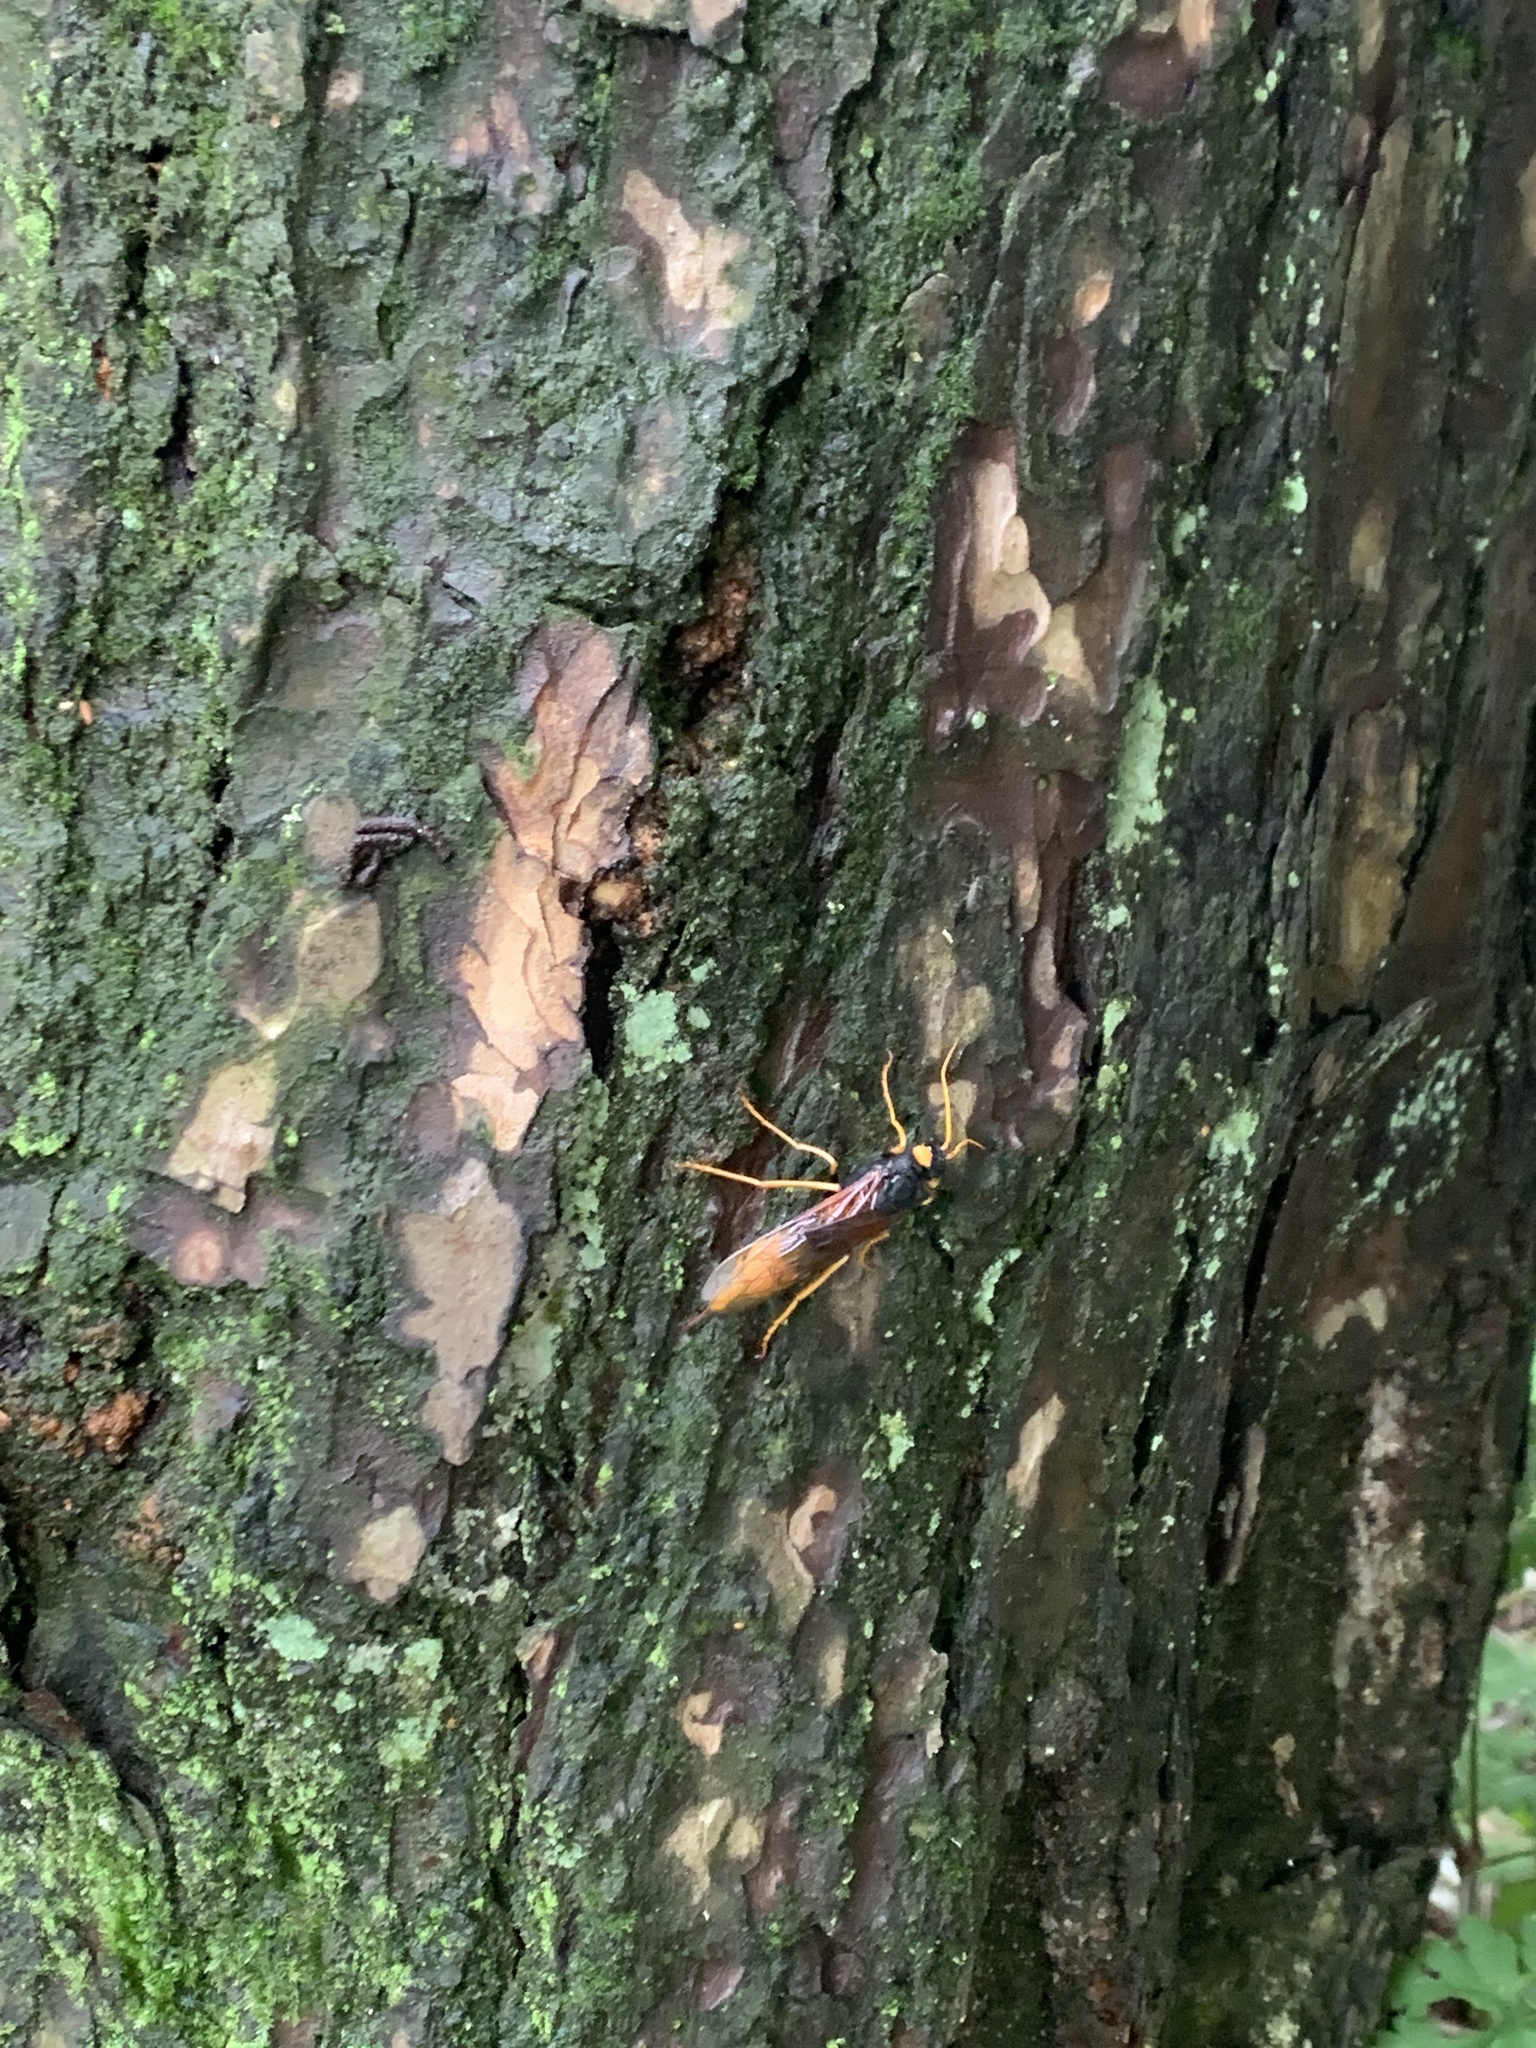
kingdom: Animalia
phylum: Arthropoda
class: Insecta
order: Hymenoptera
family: Siricidae
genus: Urocerus
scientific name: Urocerus gigas
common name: Giant woodwasp
